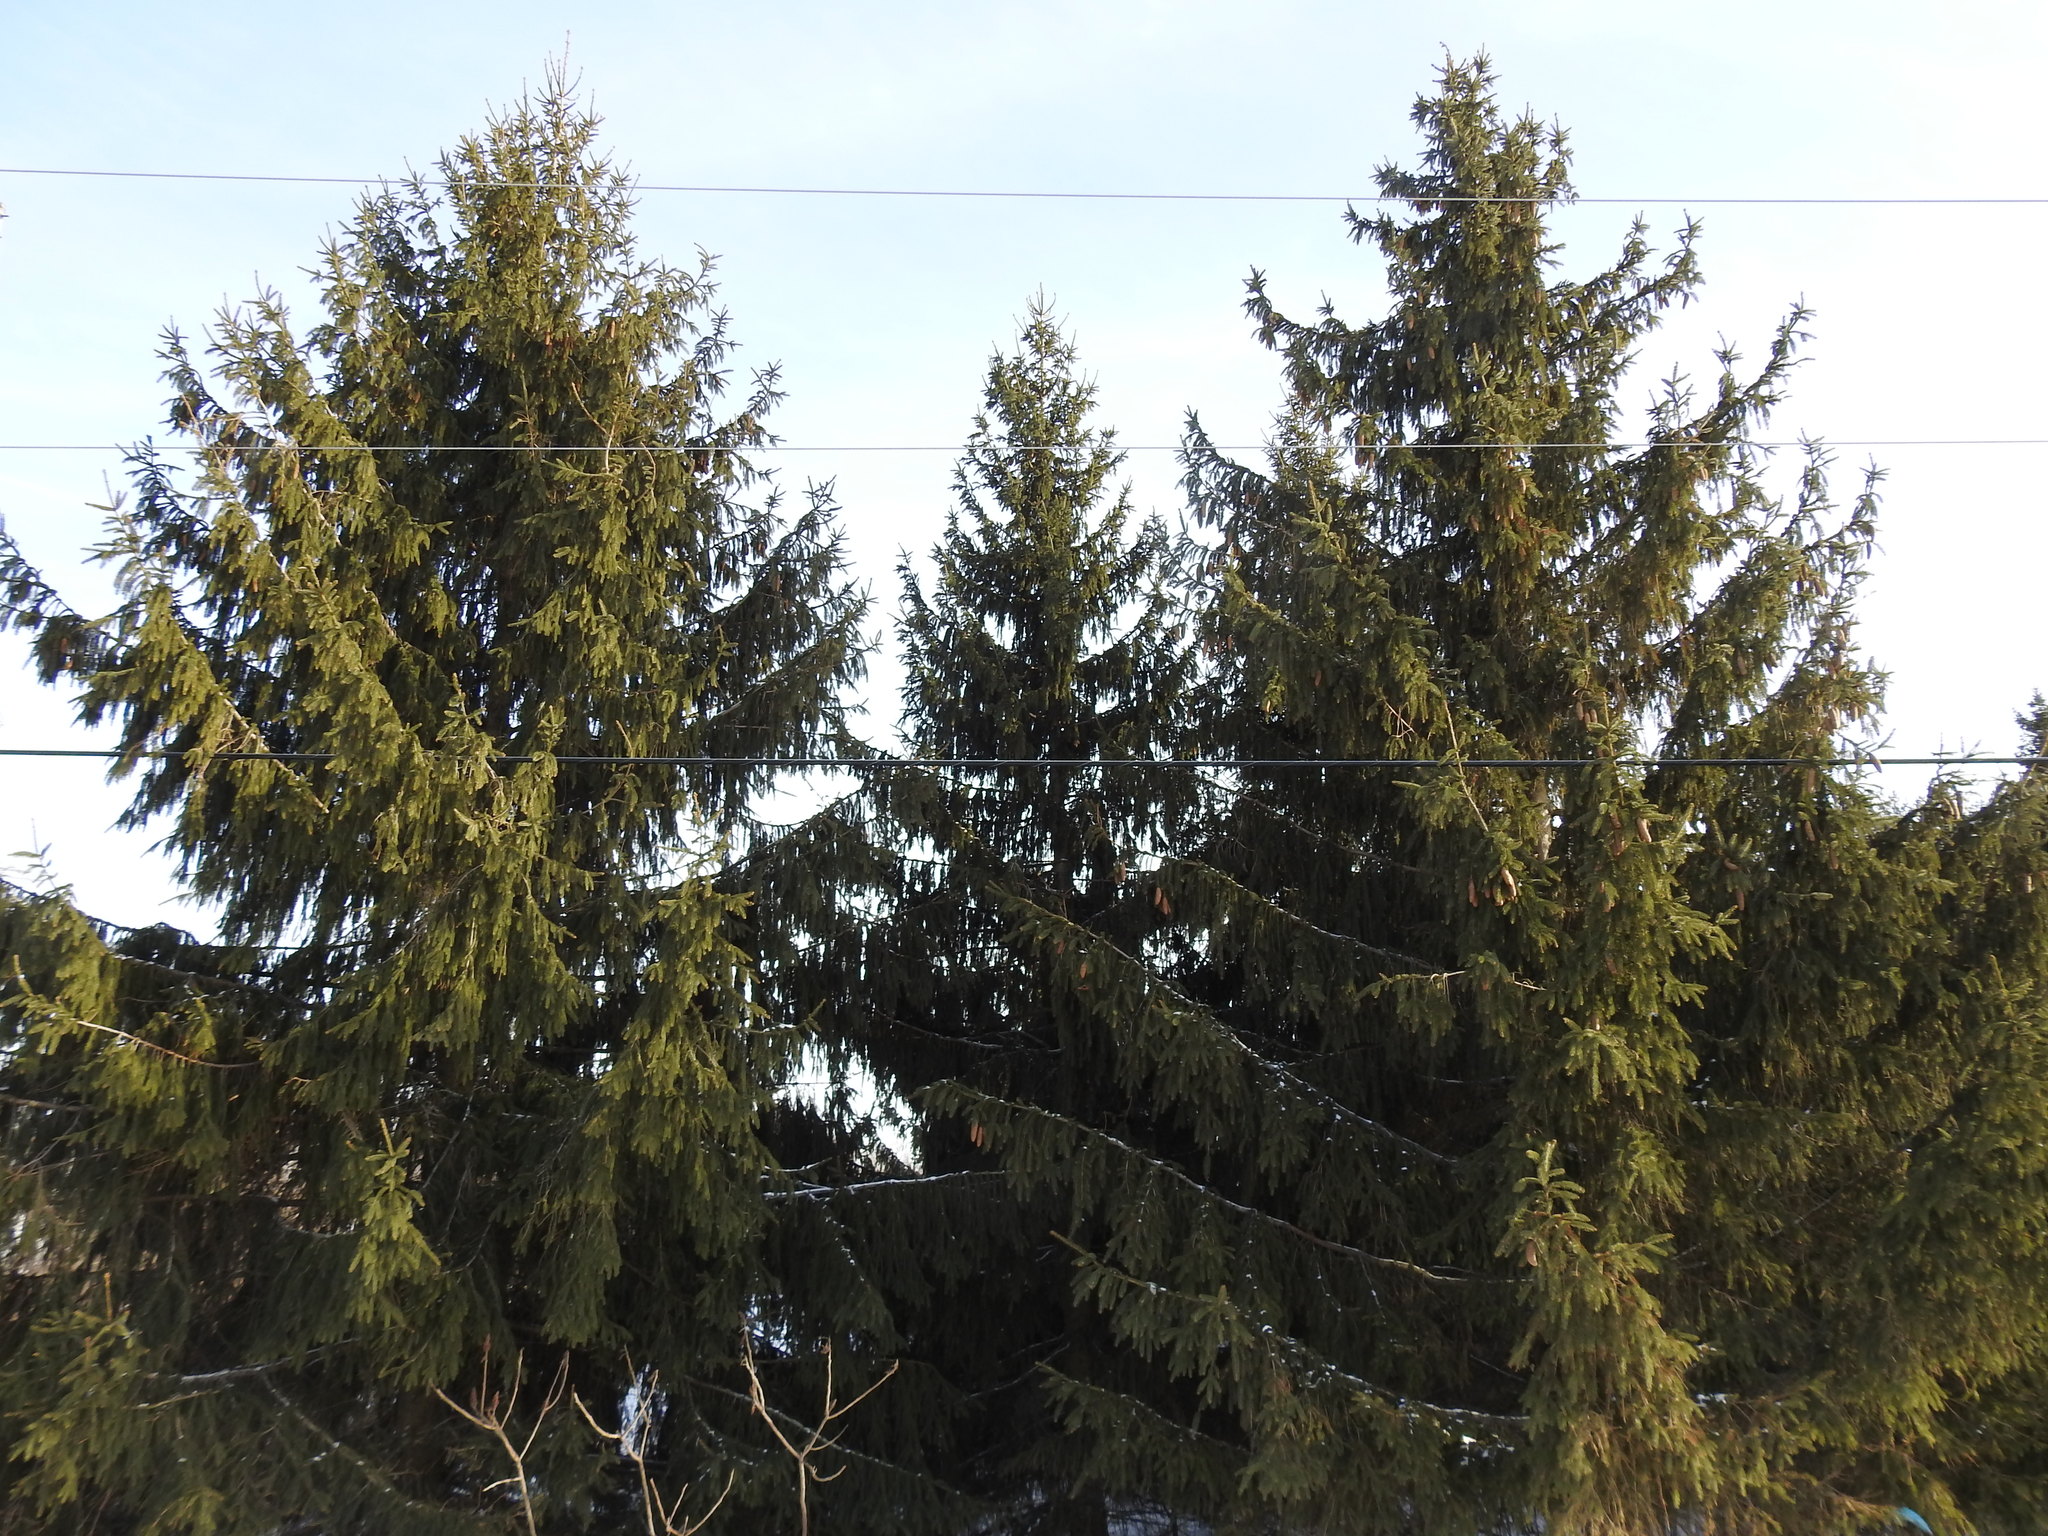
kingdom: Plantae
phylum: Tracheophyta
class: Pinopsida
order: Pinales
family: Pinaceae
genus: Picea
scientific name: Picea abies
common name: Norway spruce
